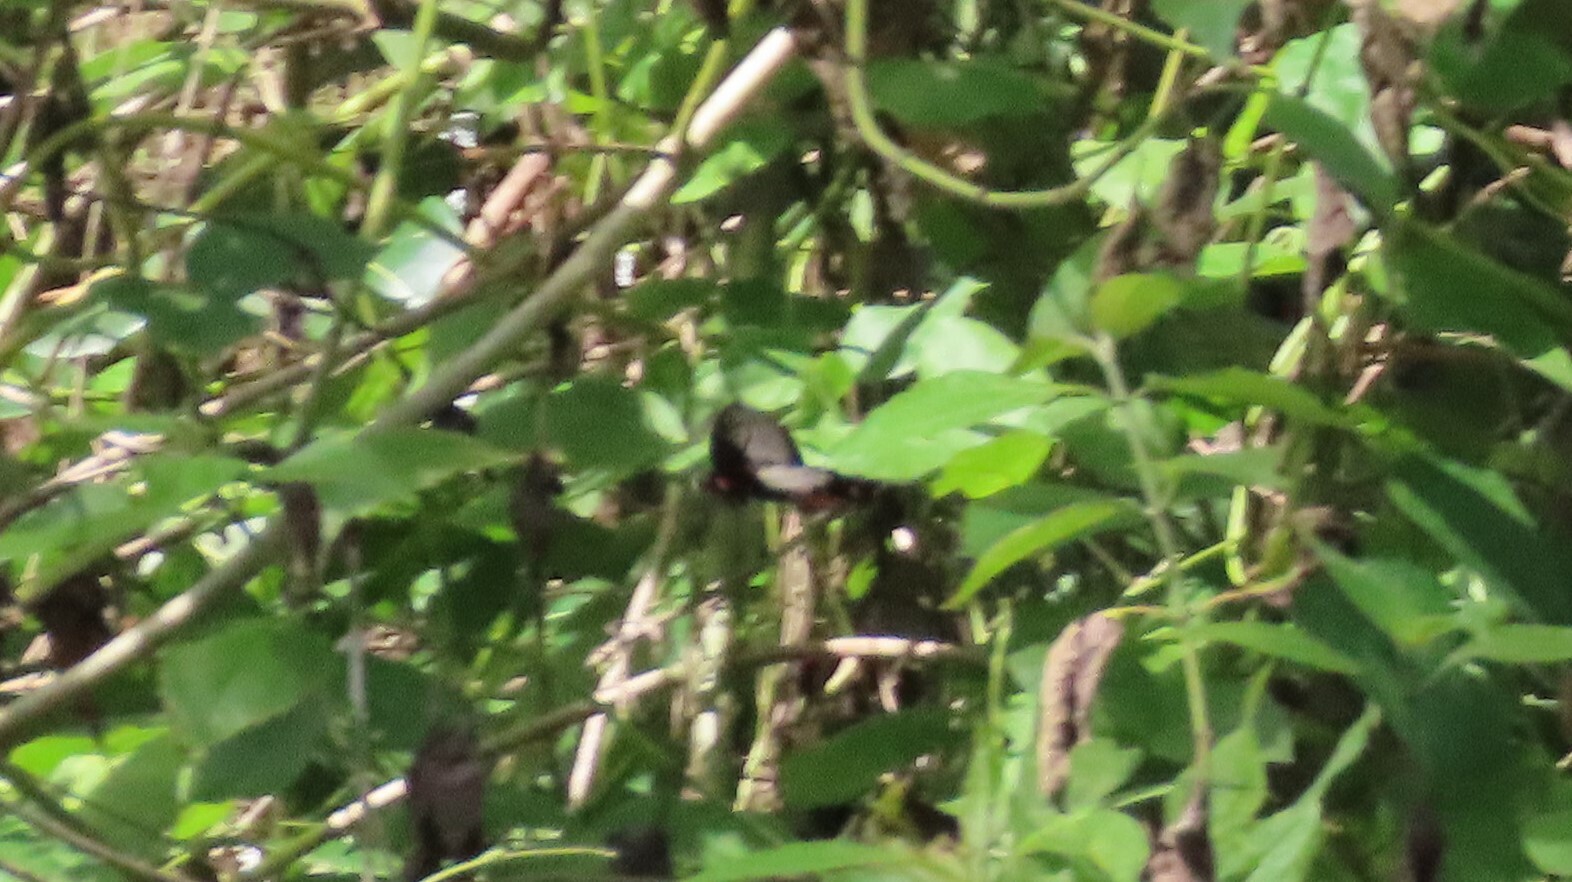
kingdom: Animalia
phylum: Arthropoda
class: Insecta
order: Lepidoptera
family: Papilionidae
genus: Pachliopta
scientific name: Pachliopta pandiyana
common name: Malabar rose
